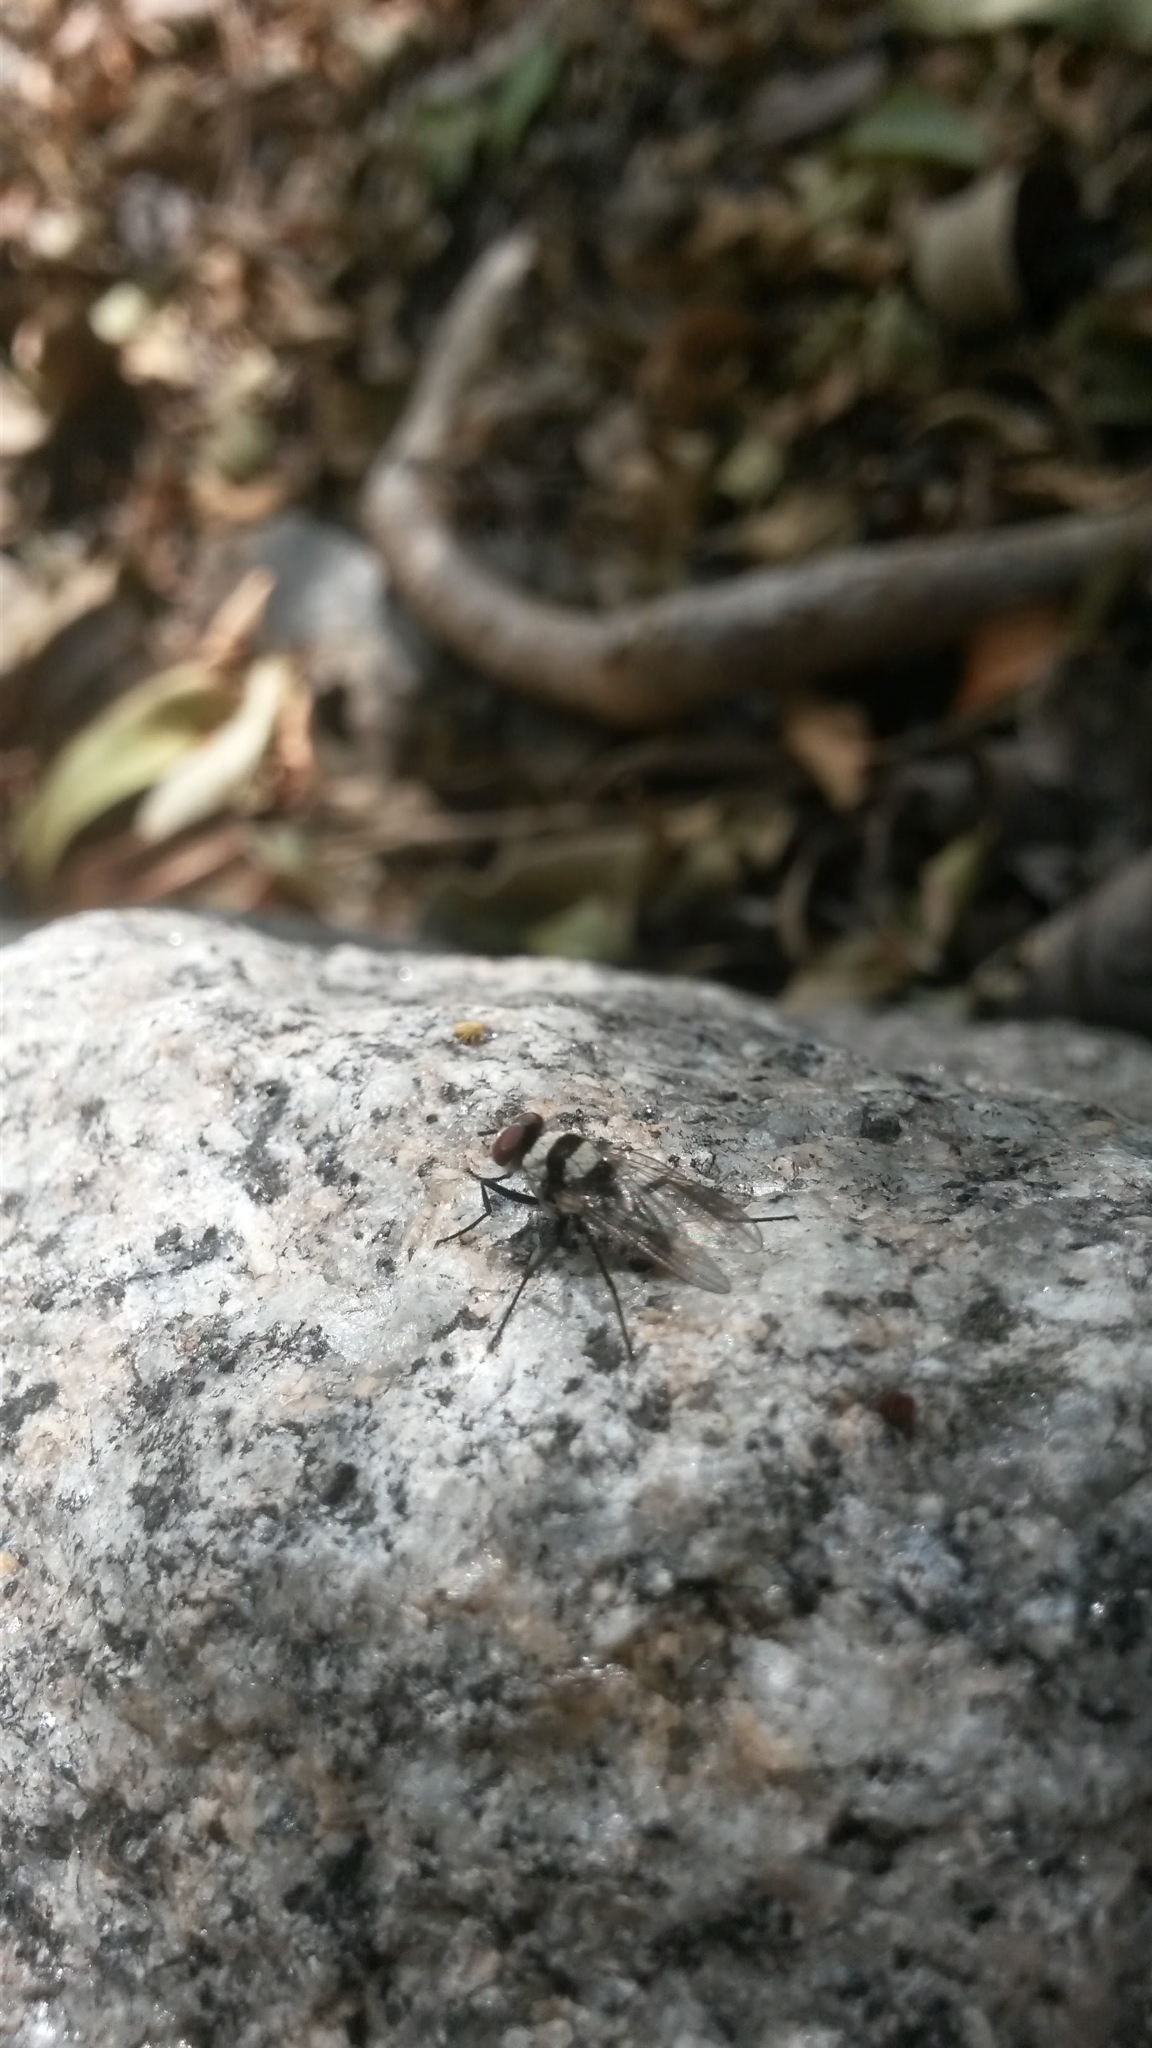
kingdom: Animalia
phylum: Arthropoda
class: Insecta
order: Diptera
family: Anthomyiidae
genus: Anthomyia
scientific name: Anthomyia medialis
